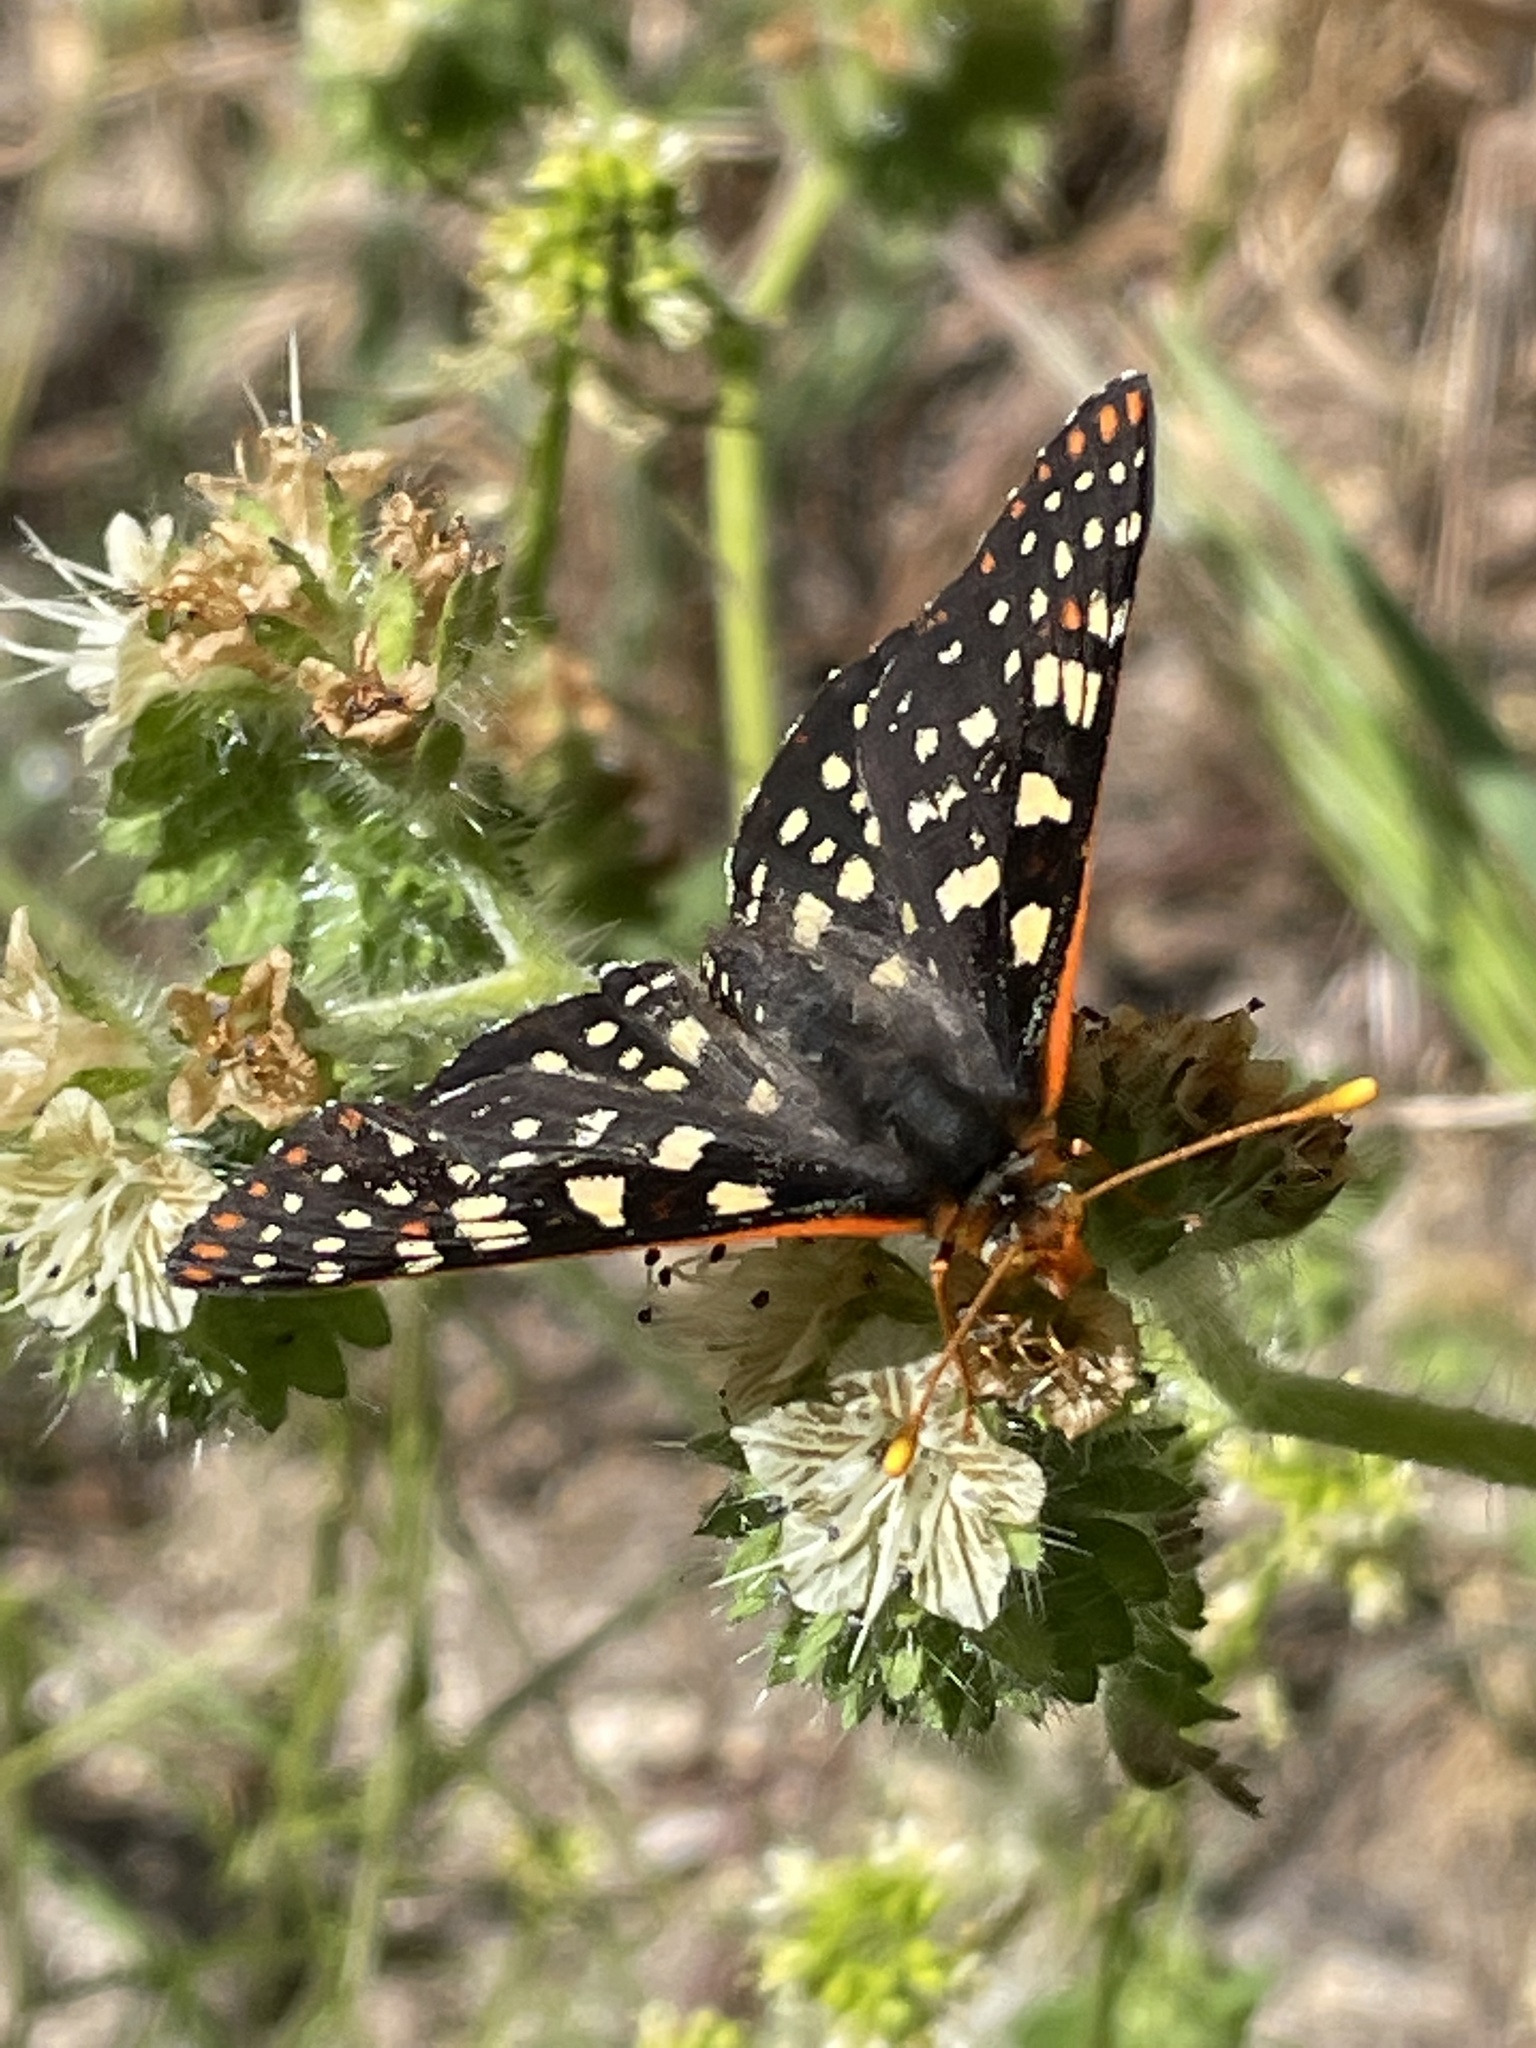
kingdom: Animalia
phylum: Arthropoda
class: Insecta
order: Lepidoptera
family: Nymphalidae
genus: Occidryas
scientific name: Occidryas chalcedona
